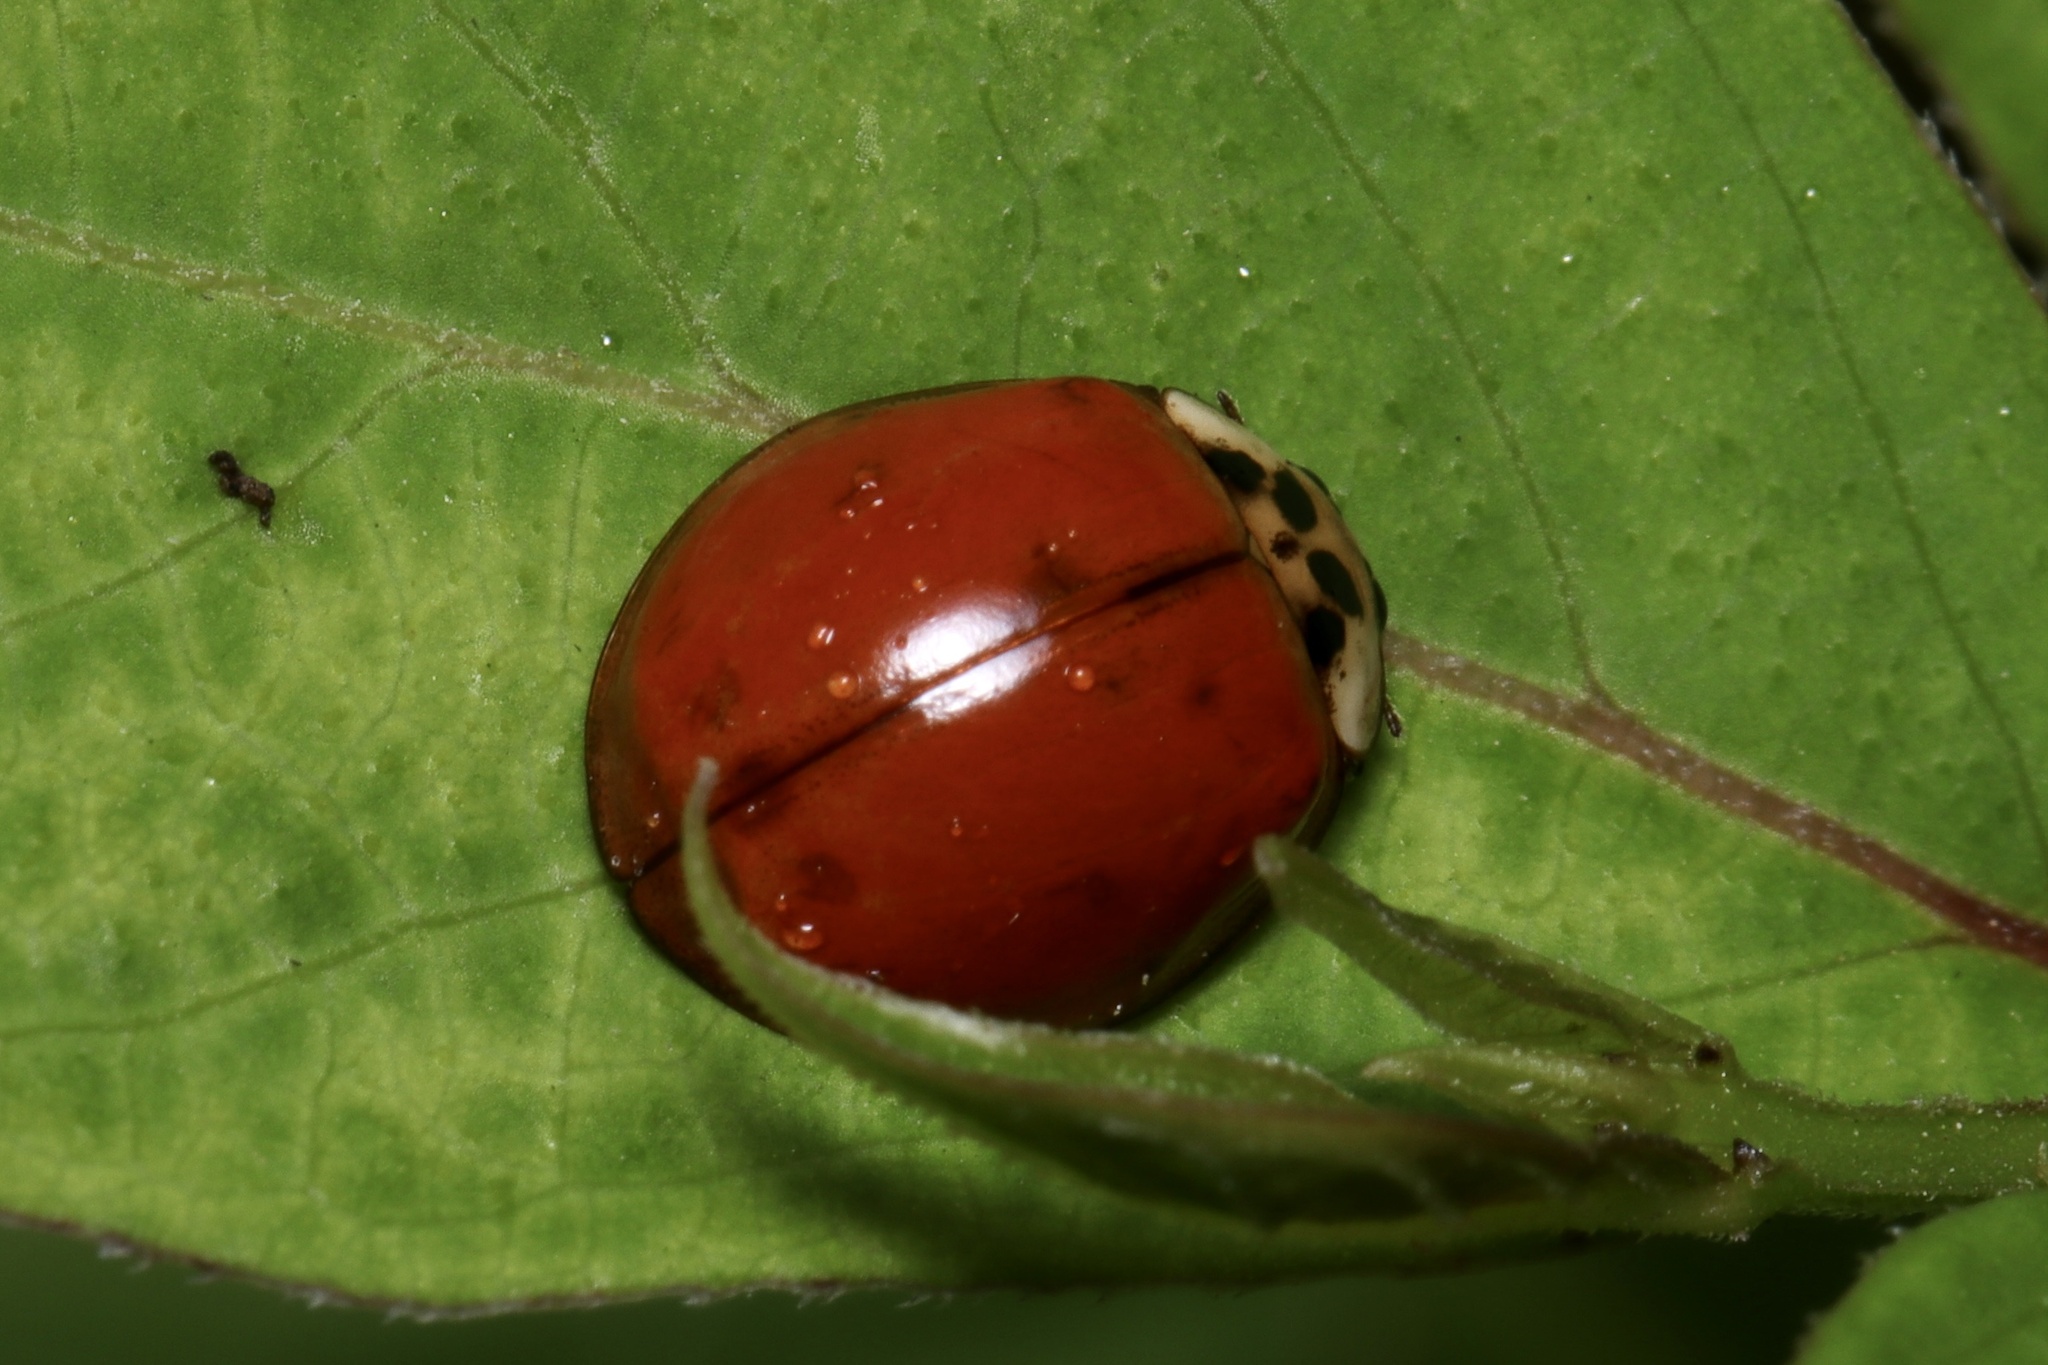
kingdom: Animalia
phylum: Arthropoda
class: Insecta
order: Coleoptera
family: Coccinellidae
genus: Harmonia
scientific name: Harmonia axyridis
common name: Harlequin ladybird
